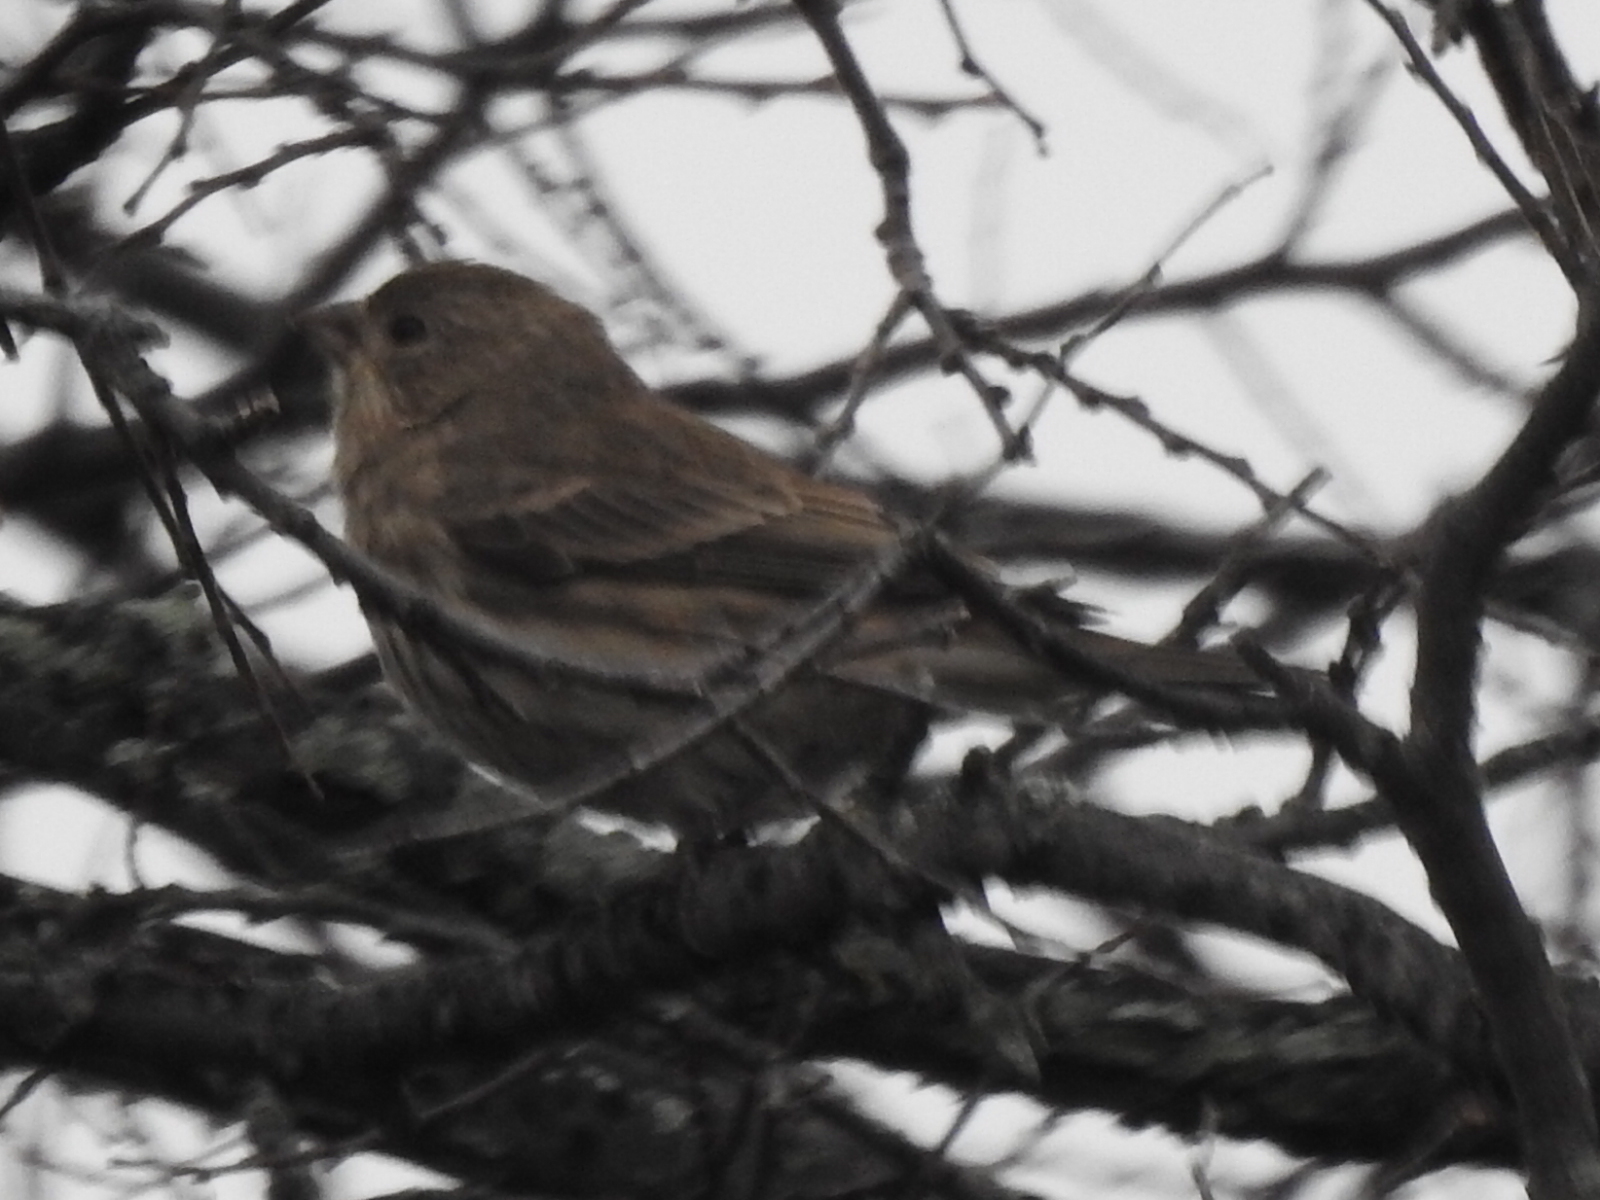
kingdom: Animalia
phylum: Chordata
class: Aves
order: Passeriformes
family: Fringillidae
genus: Haemorhous
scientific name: Haemorhous mexicanus
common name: House finch
